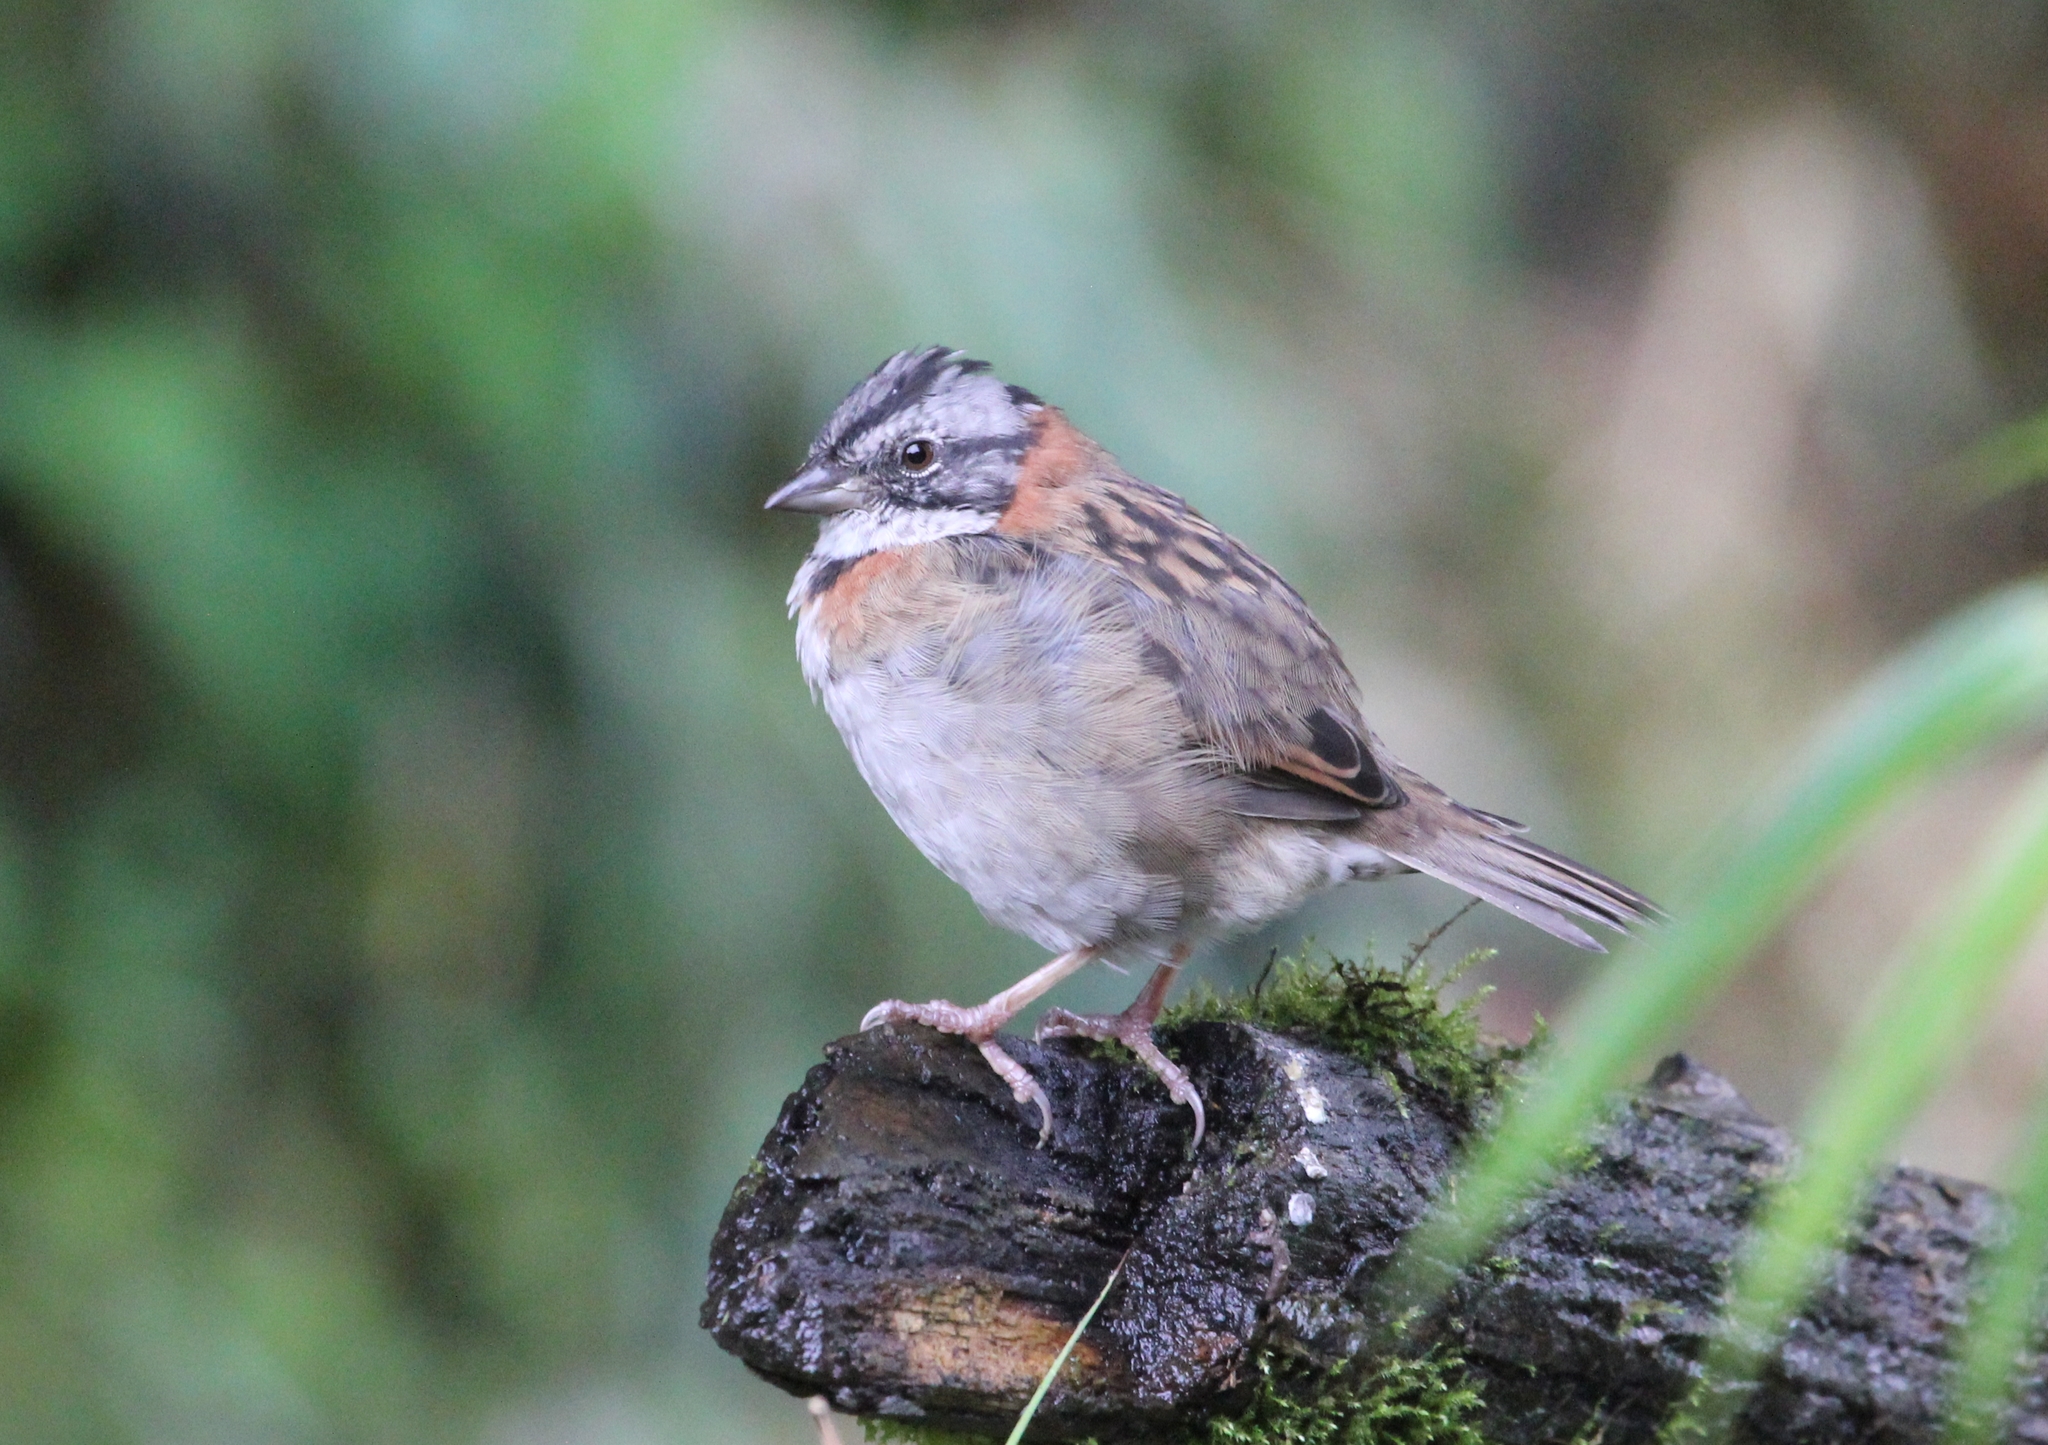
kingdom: Animalia
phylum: Chordata
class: Aves
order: Passeriformes
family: Passerellidae
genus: Zonotrichia
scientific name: Zonotrichia capensis
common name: Rufous-collared sparrow
